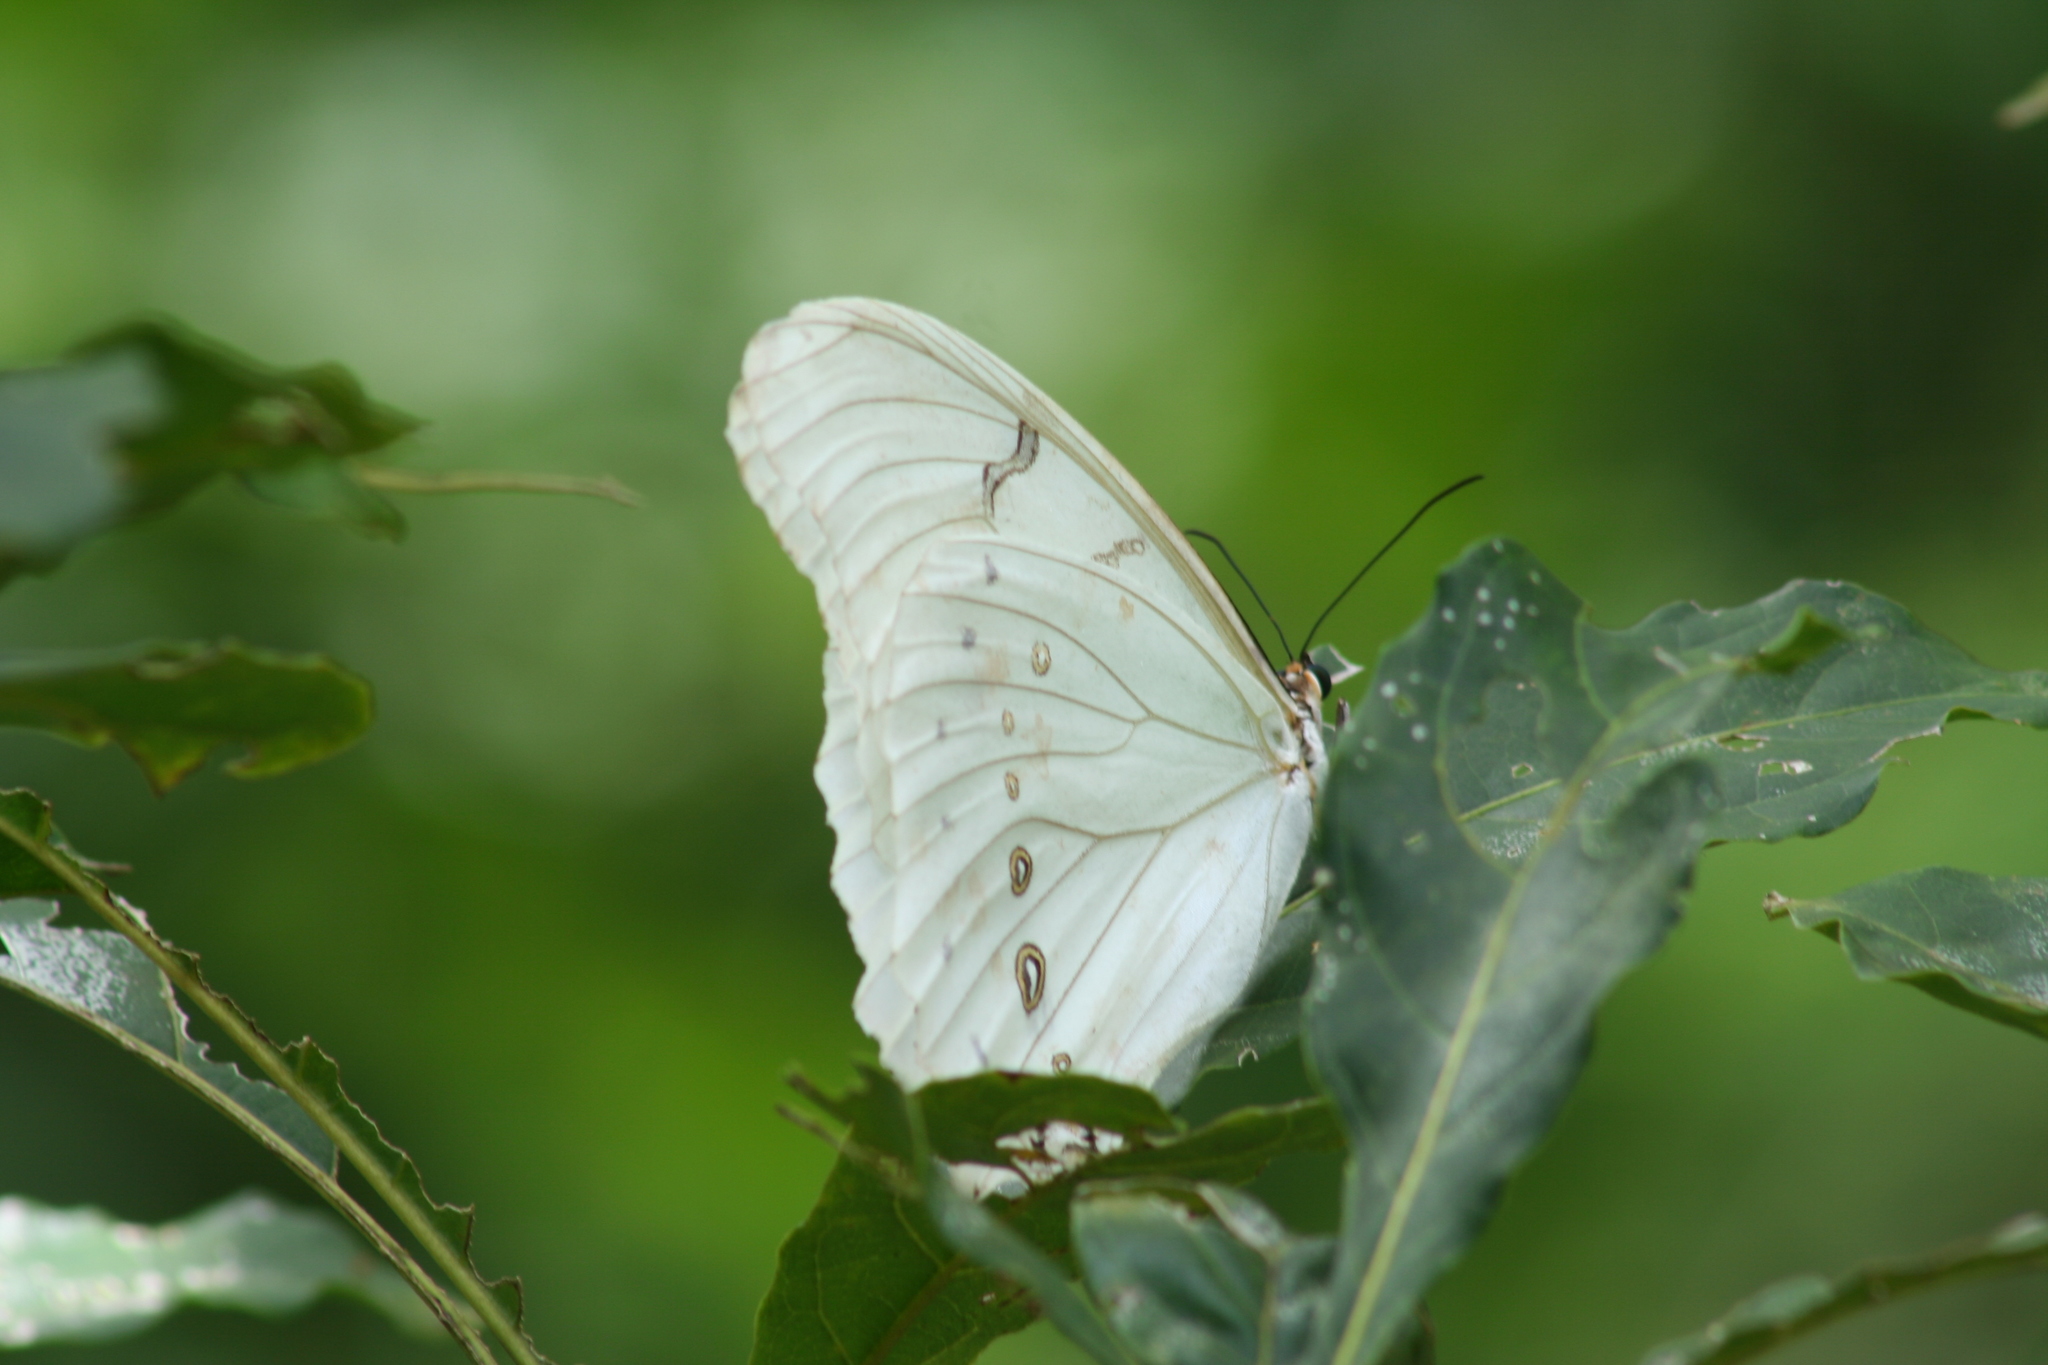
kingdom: Animalia
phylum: Arthropoda
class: Insecta
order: Lepidoptera
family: Nymphalidae
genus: Morpho
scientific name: Morpho polyphemus
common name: White morpho
